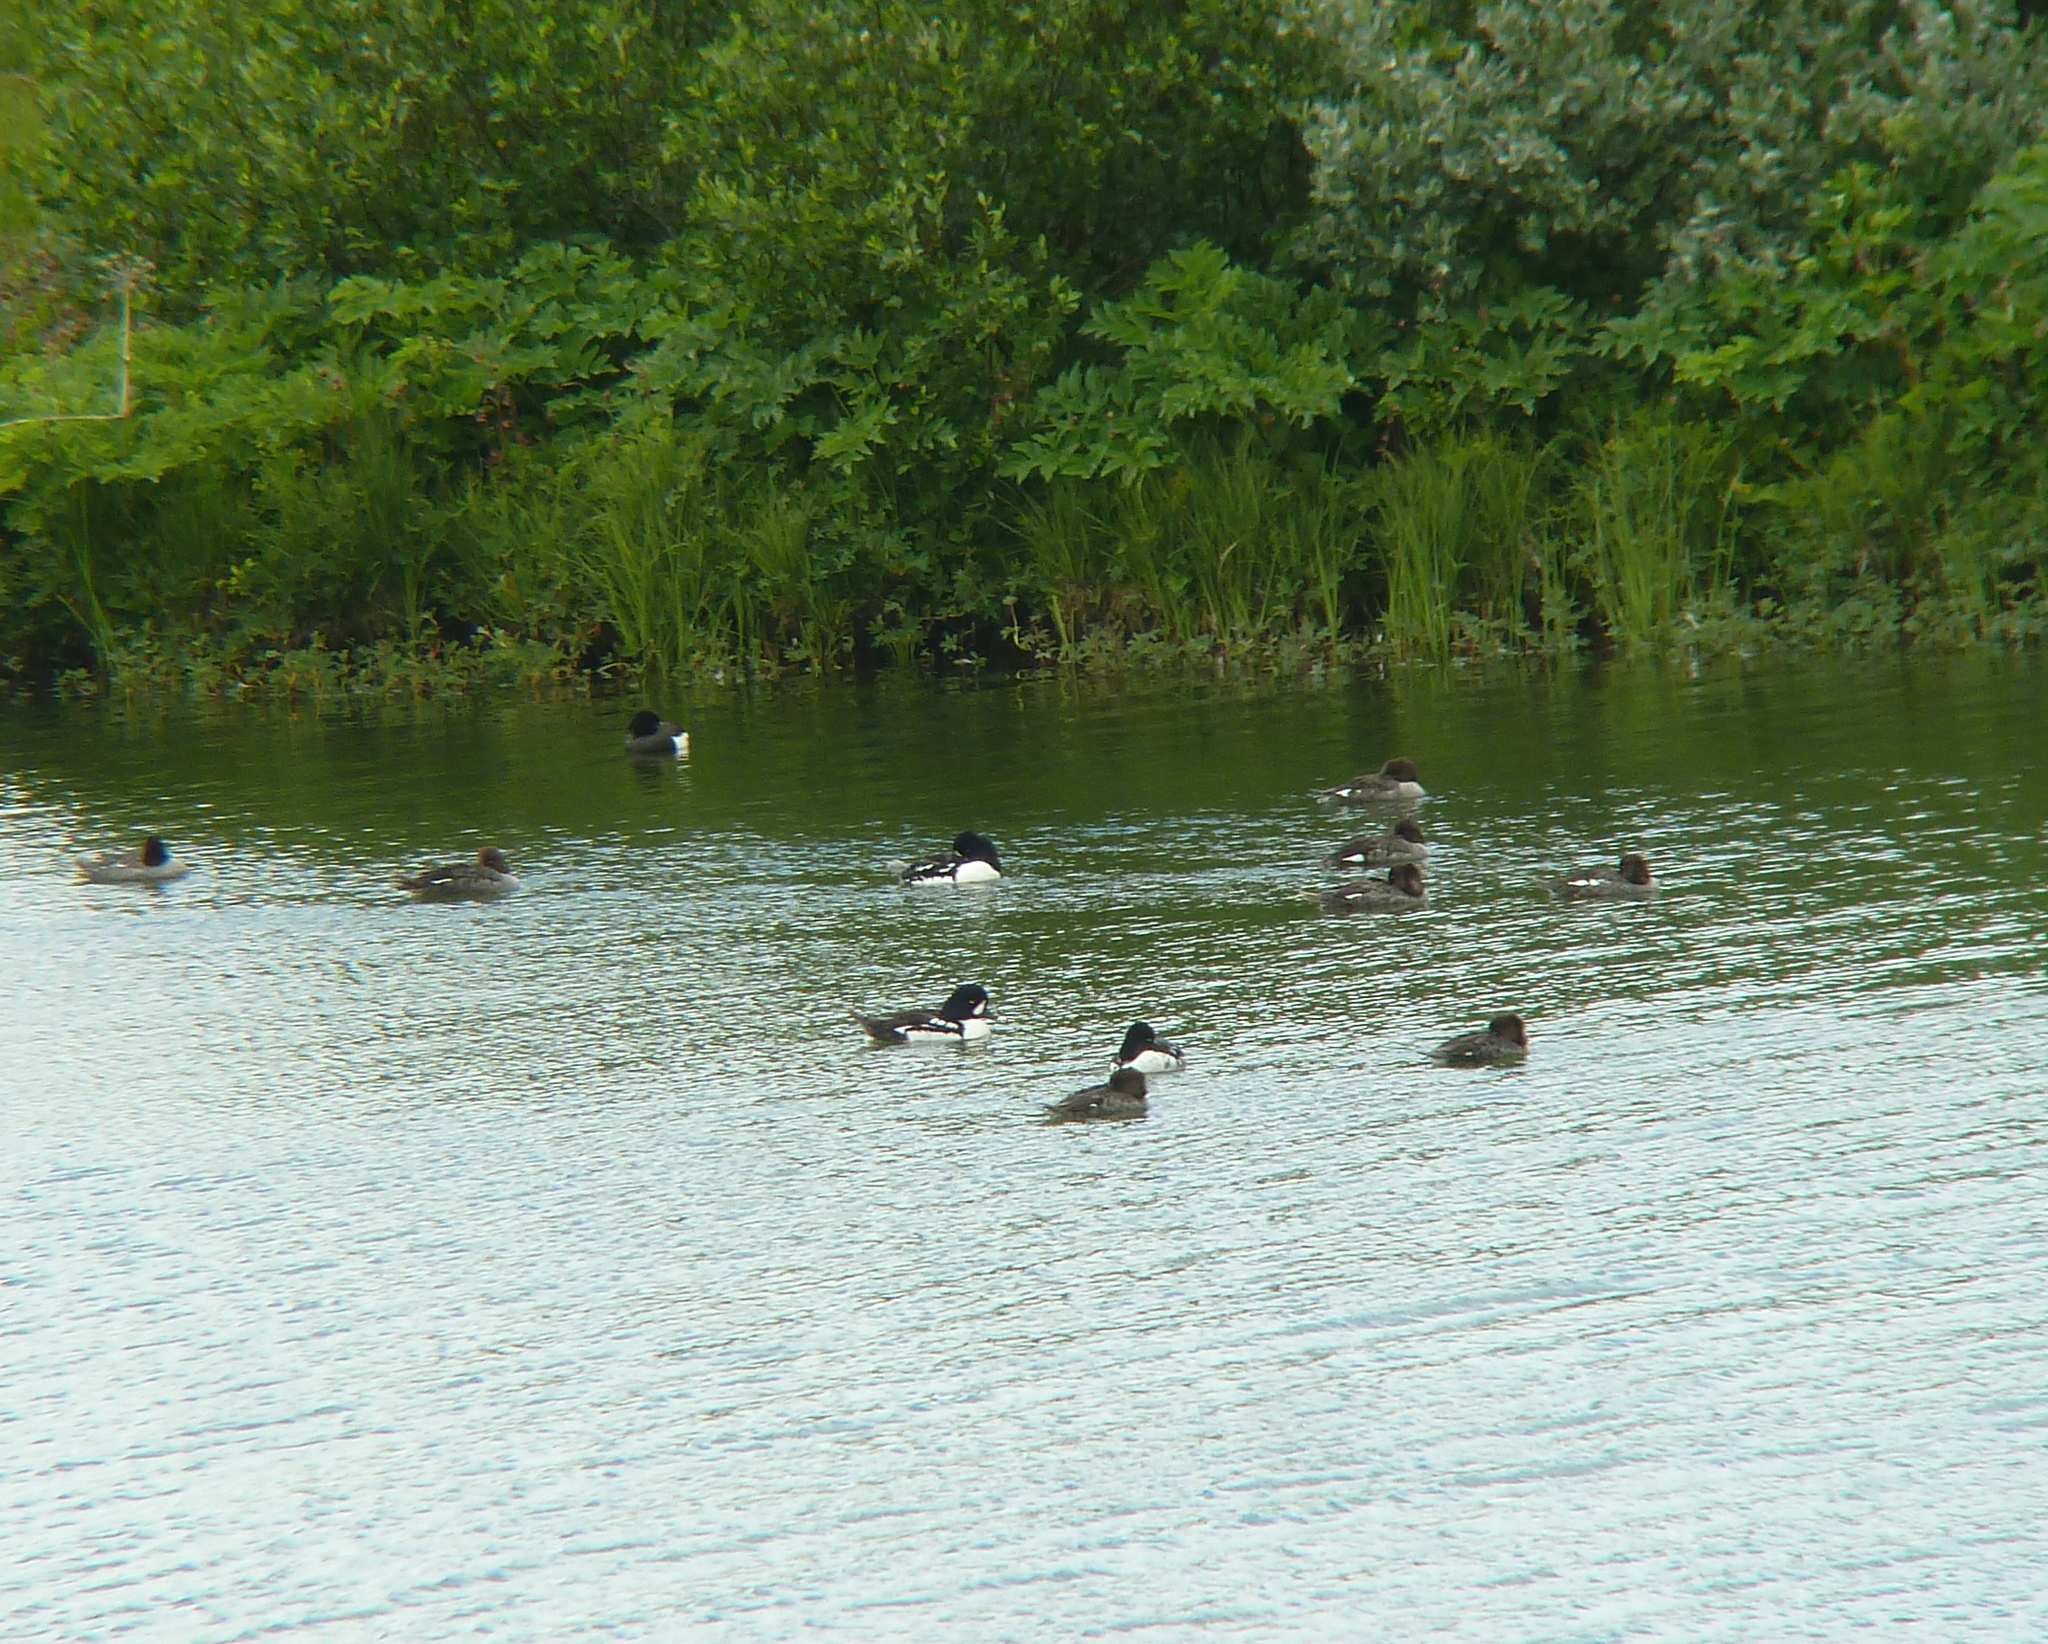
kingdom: Animalia
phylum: Chordata
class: Aves
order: Anseriformes
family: Anatidae
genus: Bucephala
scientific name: Bucephala islandica
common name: Barrow's goldeneye
